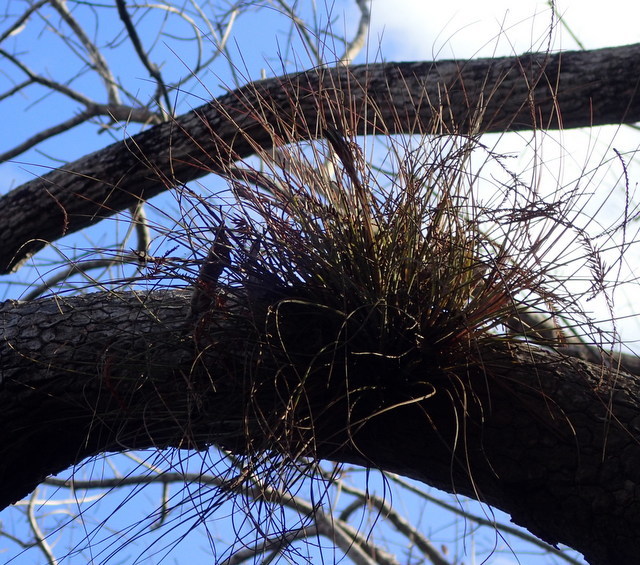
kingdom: Plantae
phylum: Tracheophyta
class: Liliopsida
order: Poales
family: Bromeliaceae
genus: Tillandsia
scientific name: Tillandsia bartramii
